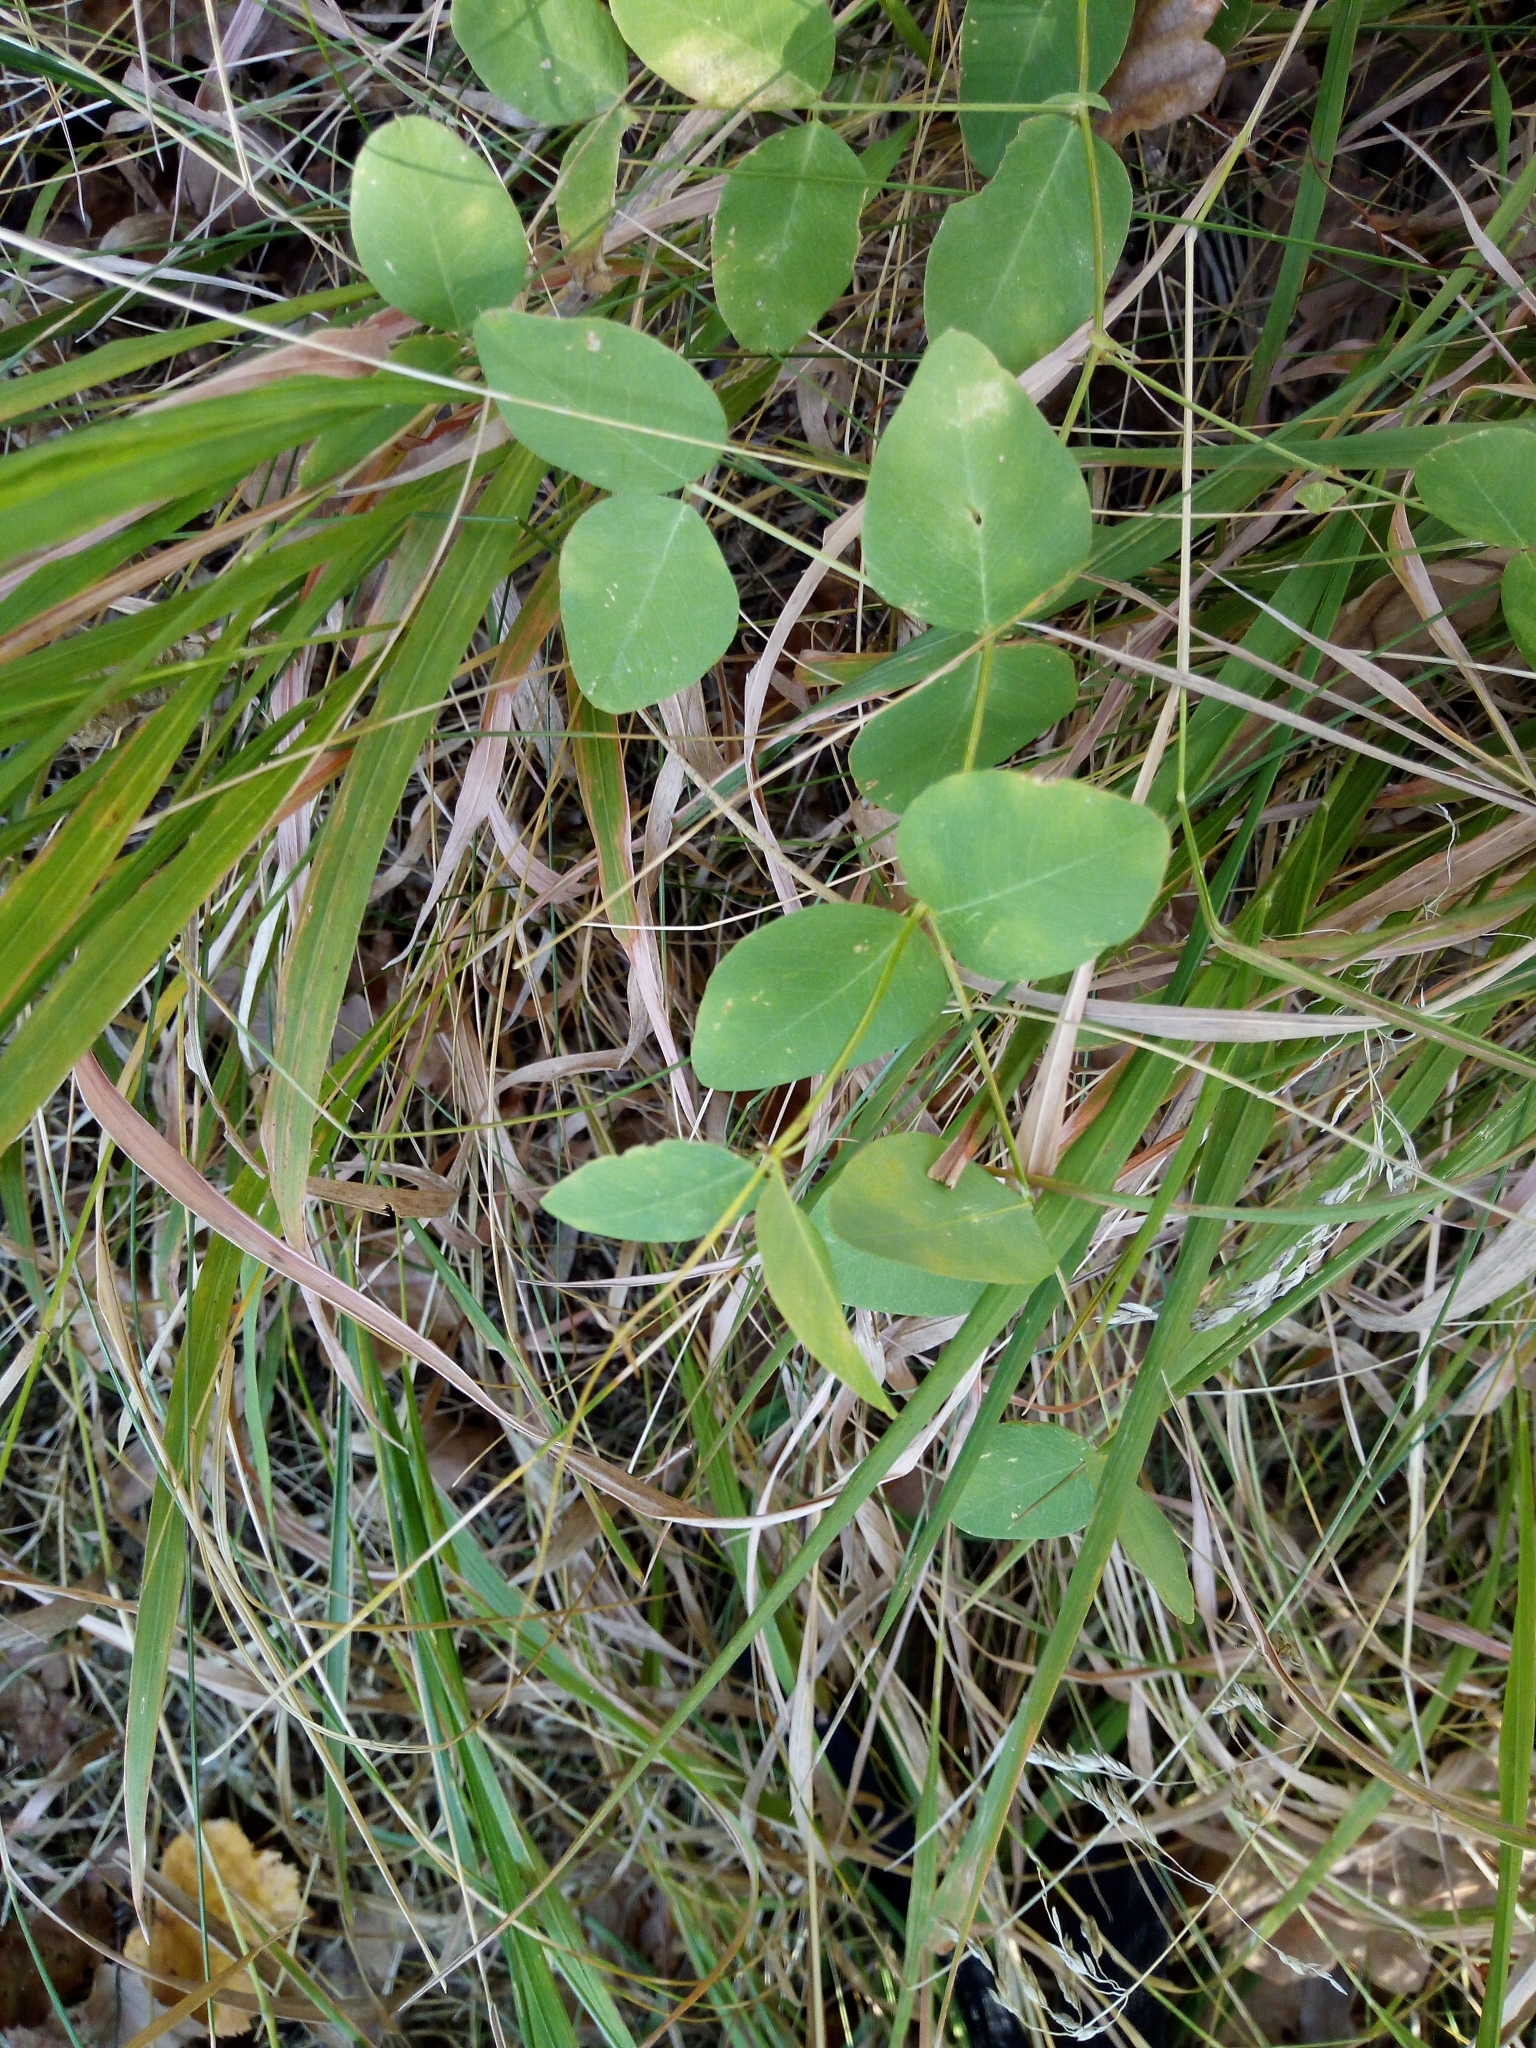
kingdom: Plantae
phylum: Tracheophyta
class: Magnoliopsida
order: Fabales
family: Fabaceae
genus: Vicia
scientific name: Vicia pisiformis
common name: Pale-flower vetch
